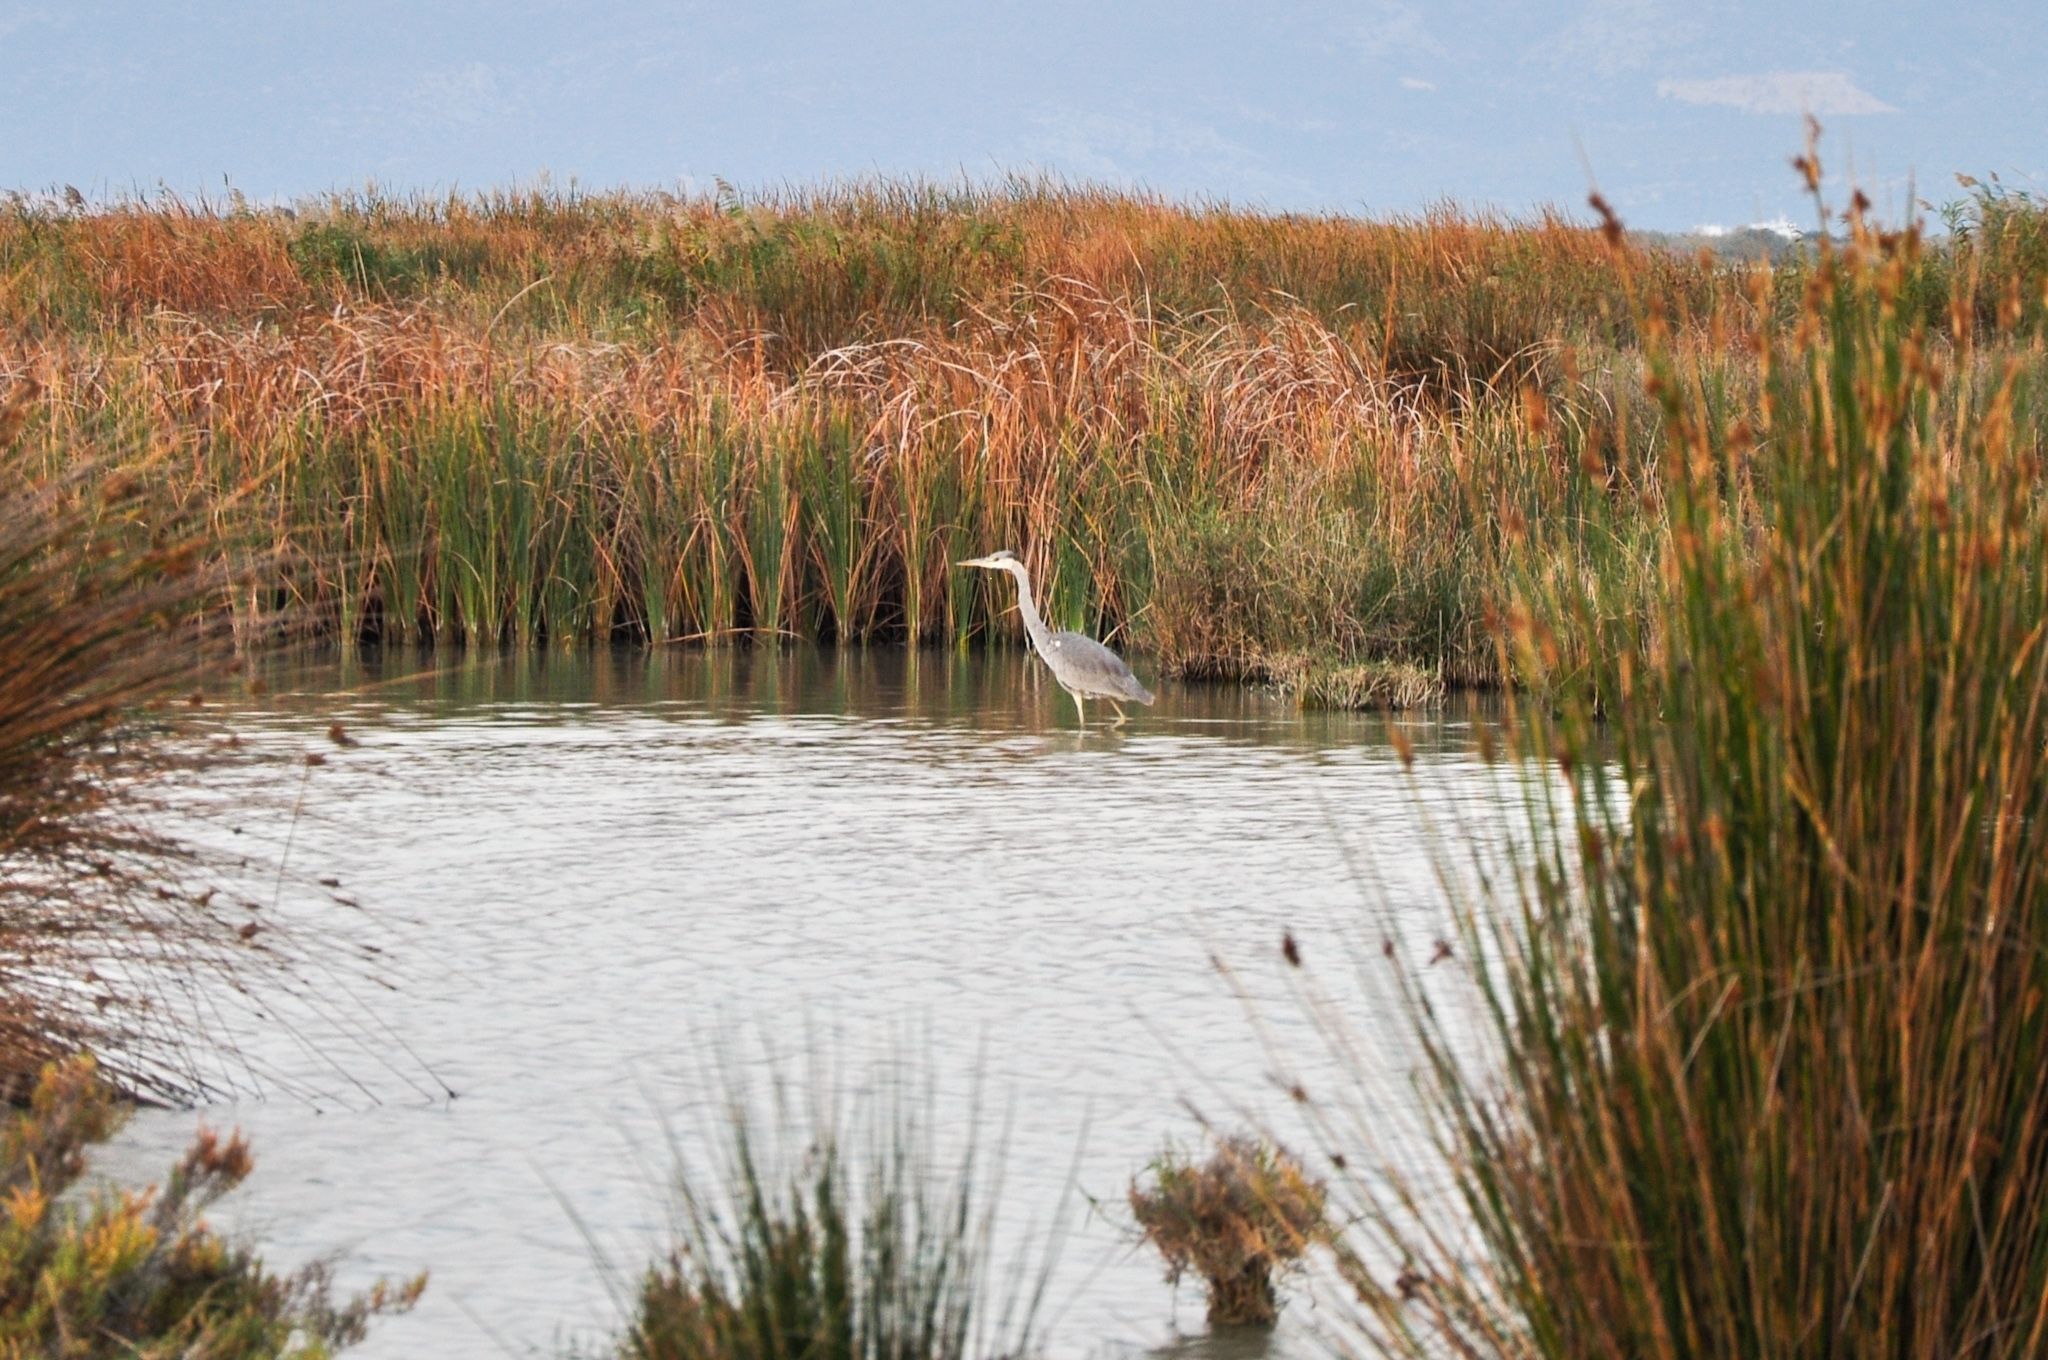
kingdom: Animalia
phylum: Chordata
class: Aves
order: Pelecaniformes
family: Ardeidae
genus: Ardea
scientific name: Ardea cinerea
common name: Grey heron
